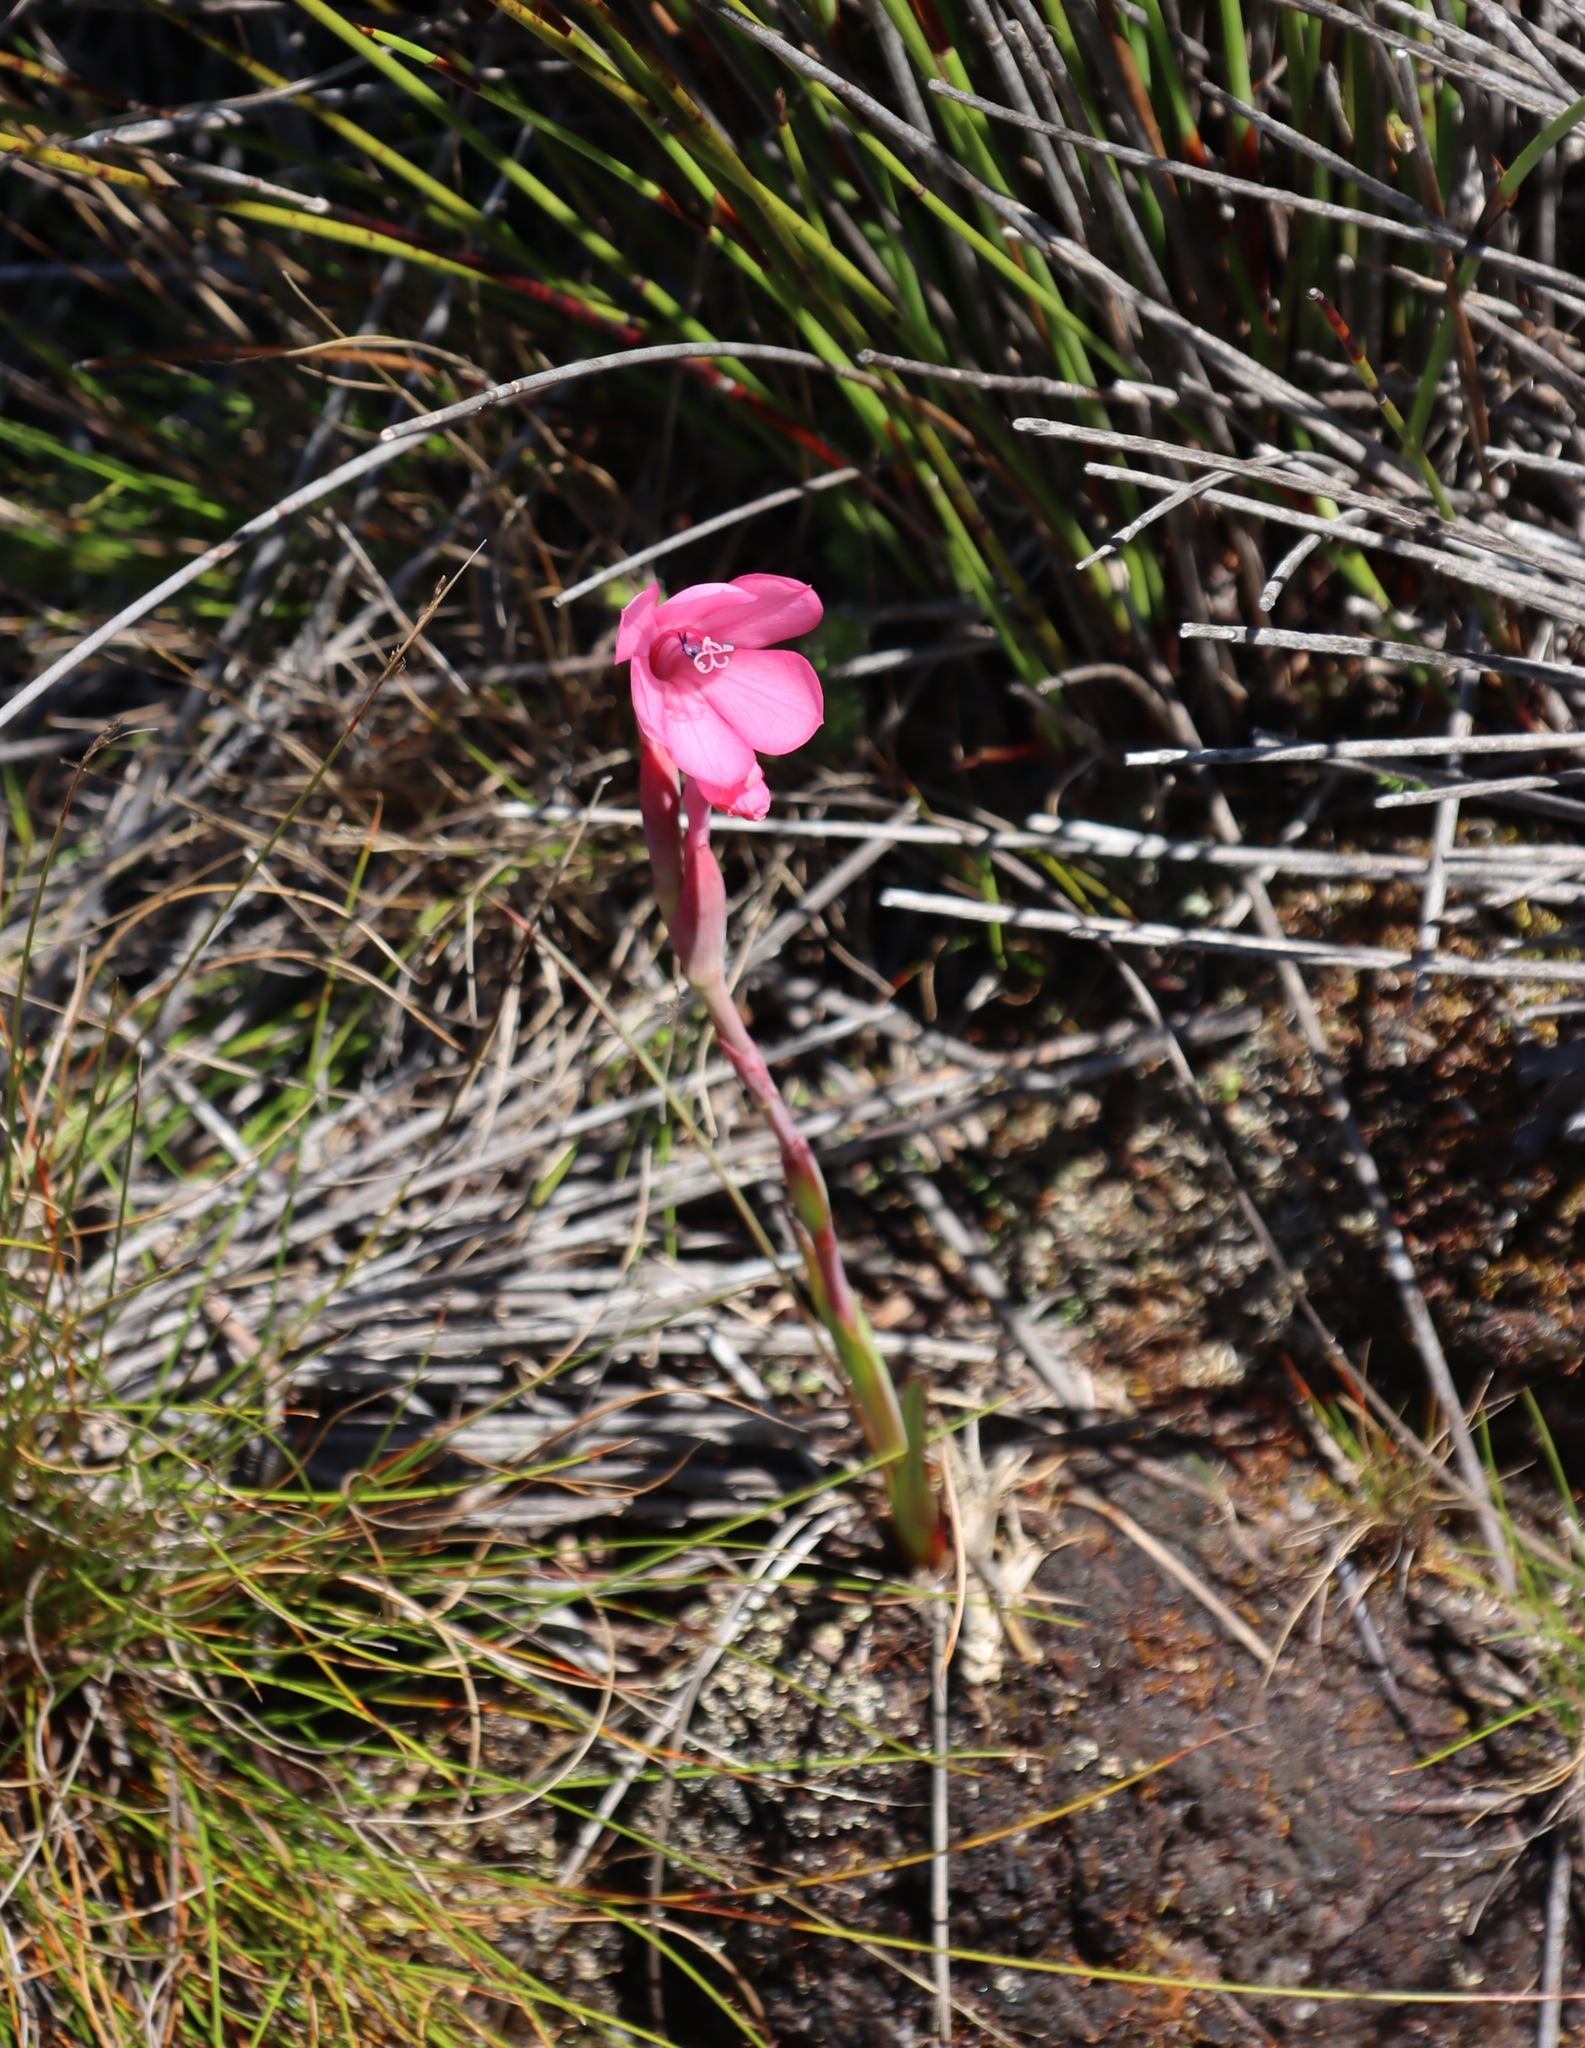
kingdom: Plantae
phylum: Tracheophyta
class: Liliopsida
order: Asparagales
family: Iridaceae
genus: Watsonia
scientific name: Watsonia coccinea
